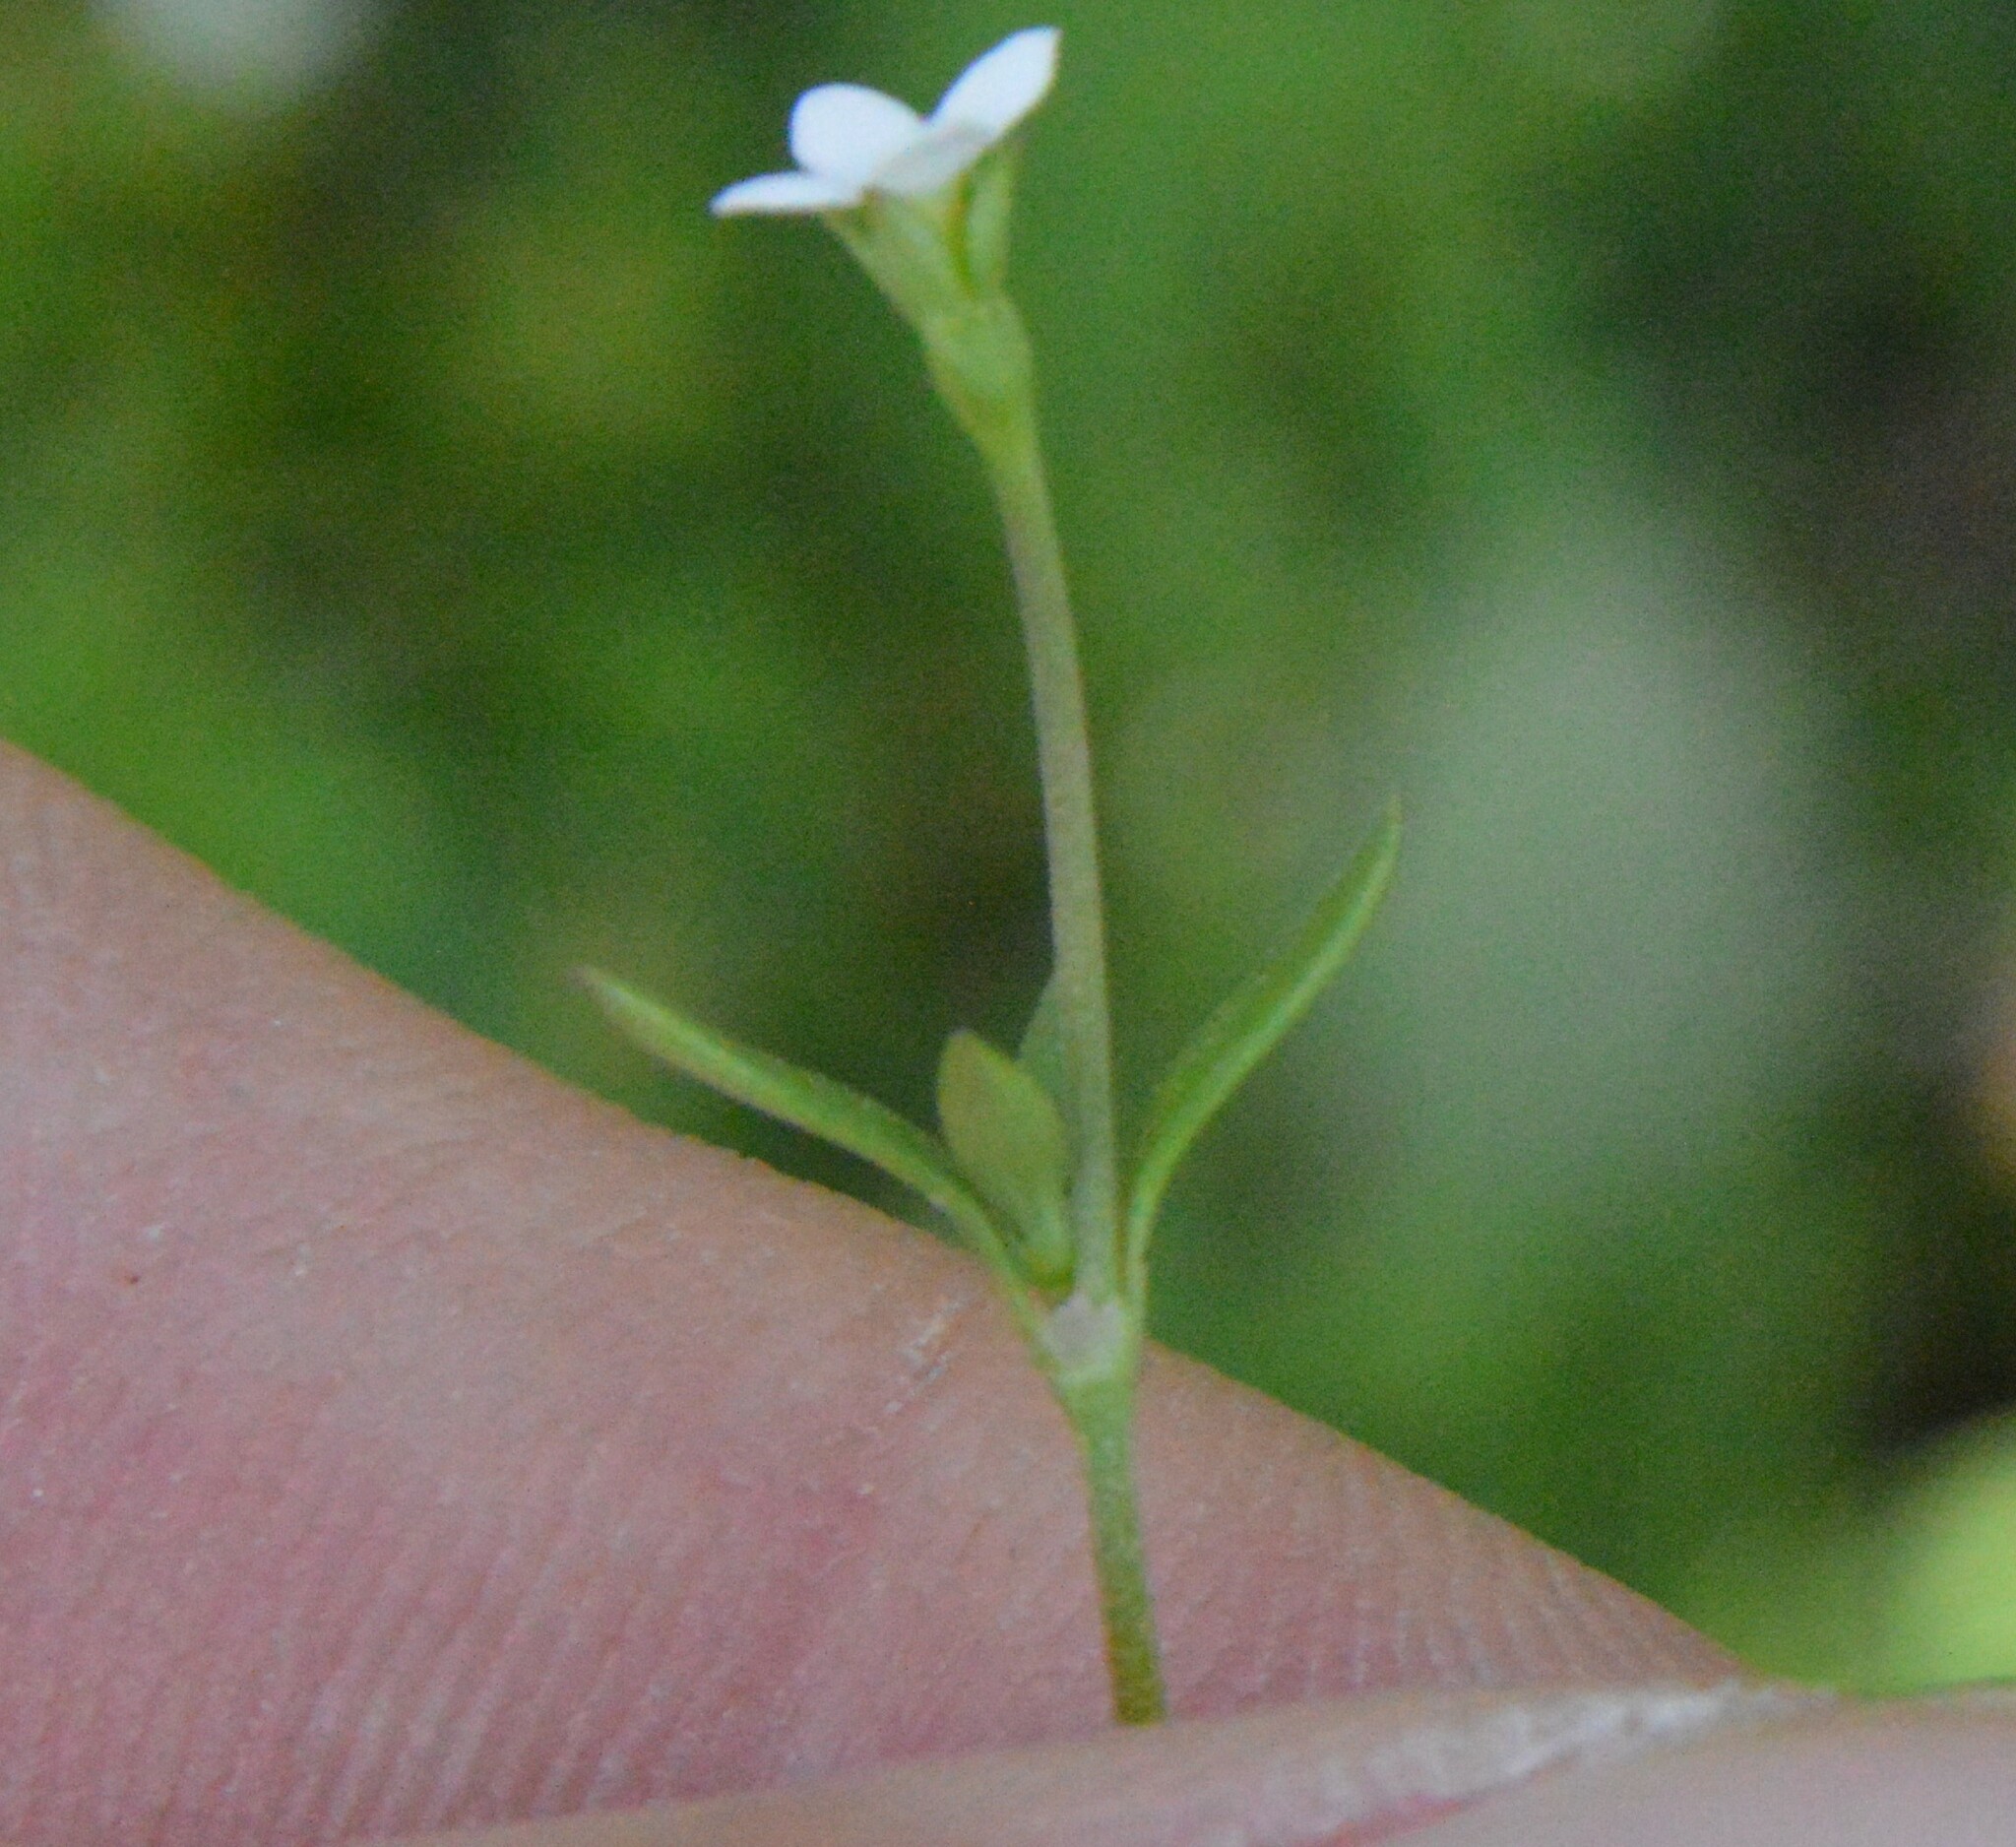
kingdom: Plantae
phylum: Tracheophyta
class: Magnoliopsida
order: Gentianales
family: Rubiaceae
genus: Houstonia
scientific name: Houstonia micrantha
